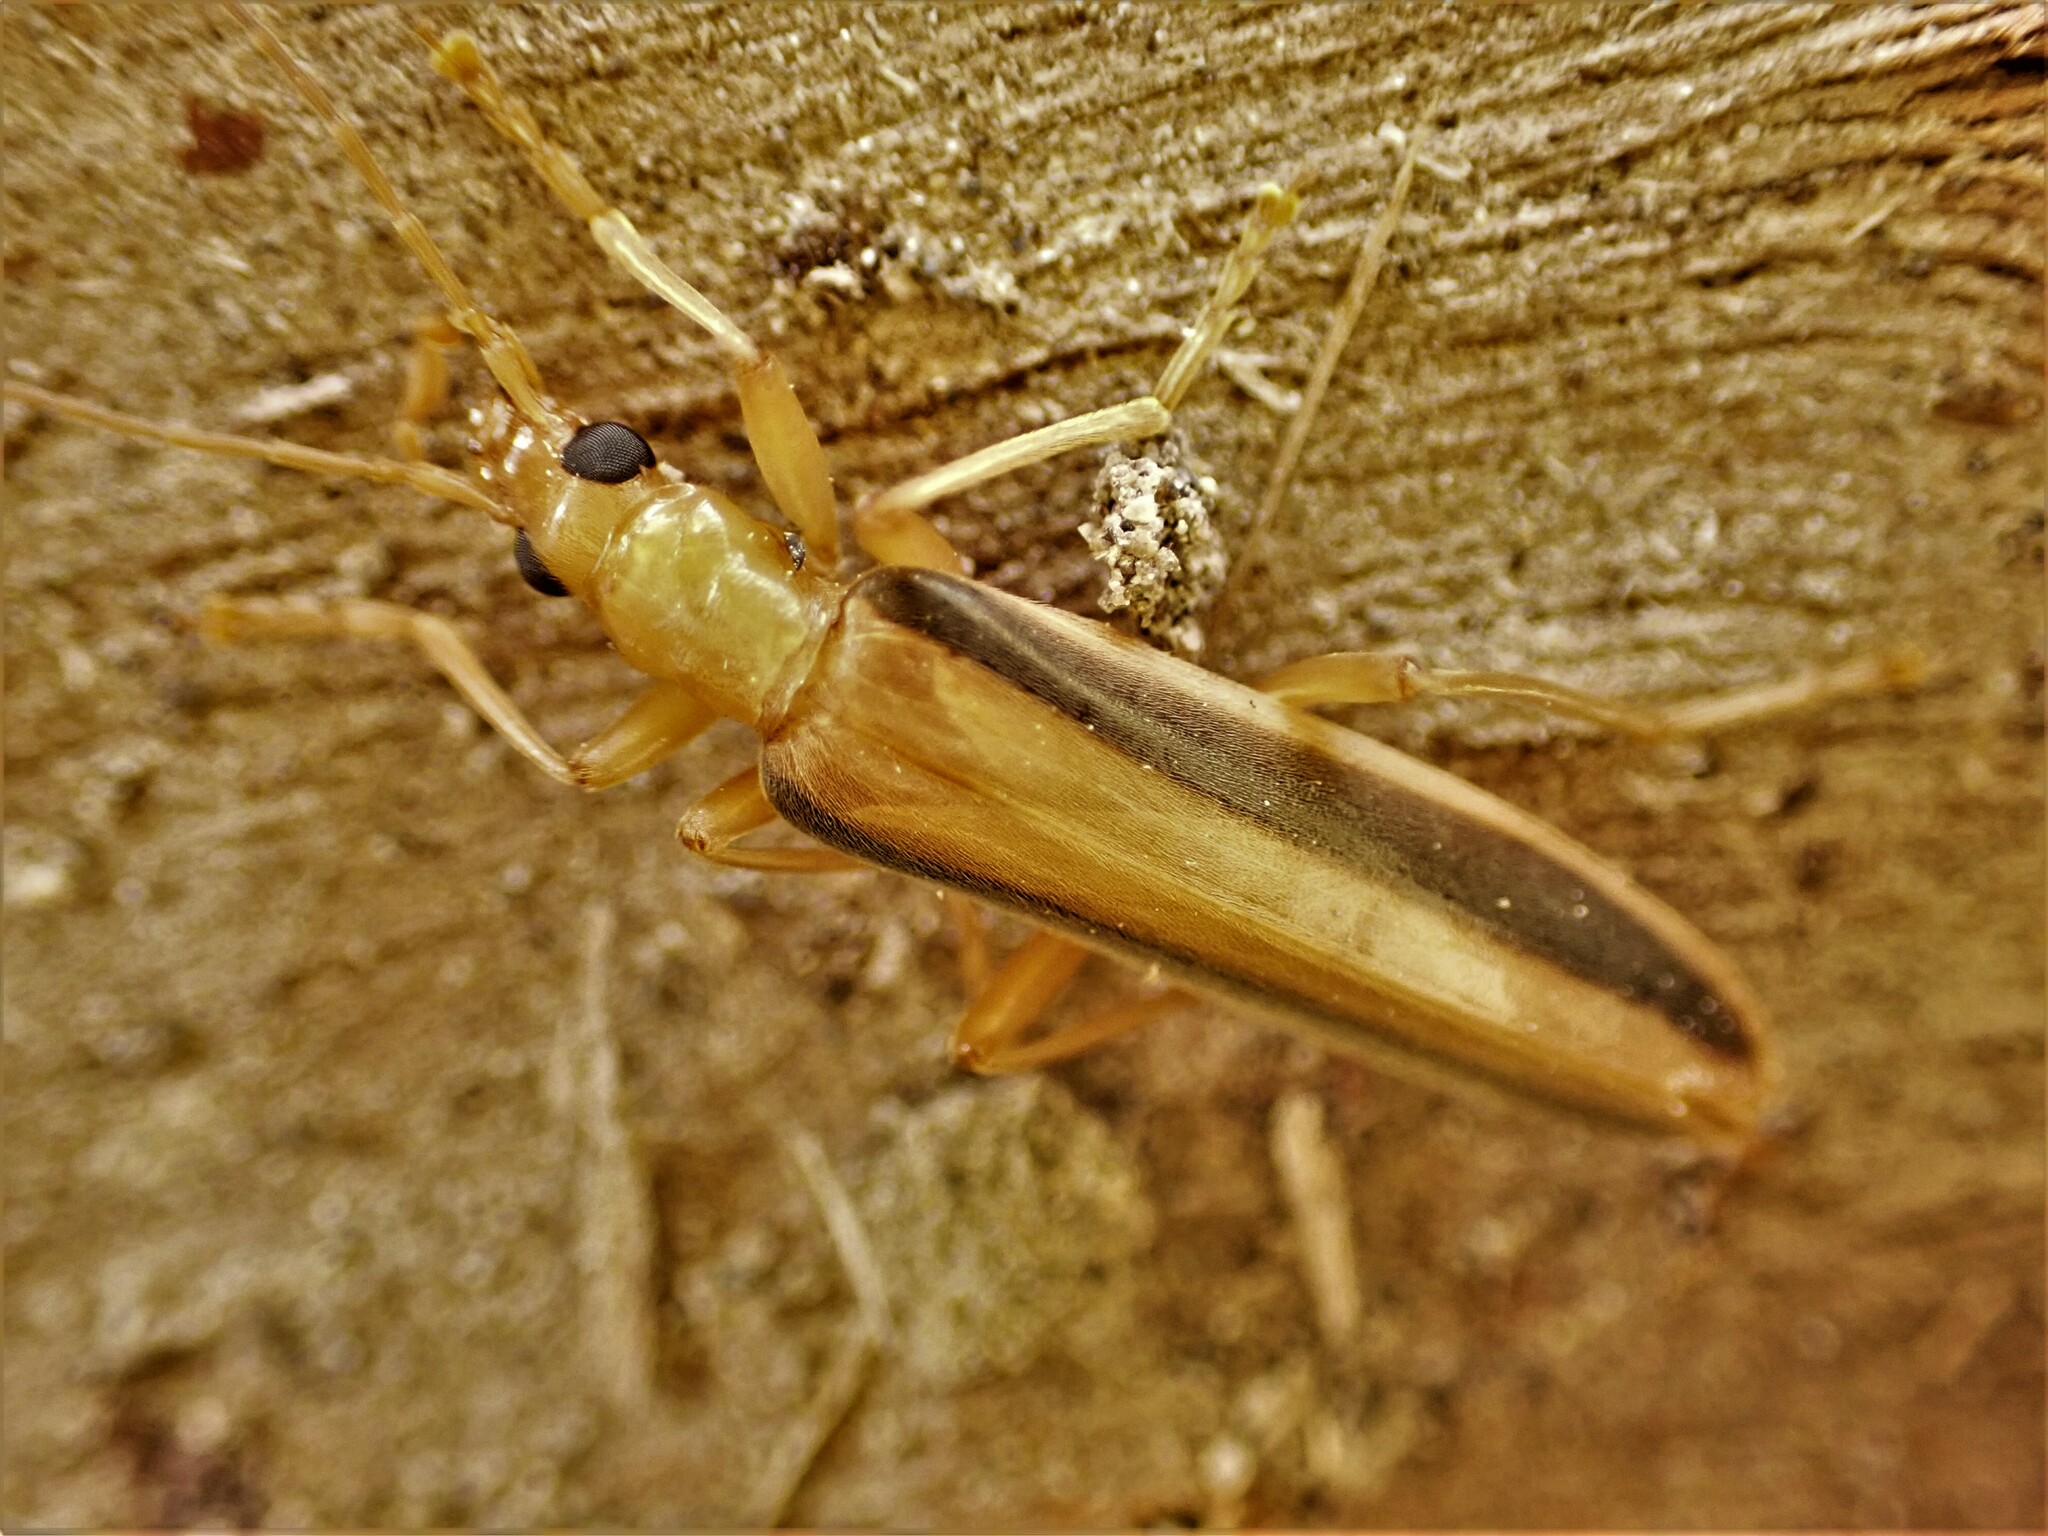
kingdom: Animalia
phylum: Arthropoda
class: Insecta
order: Coleoptera
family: Oedemeridae
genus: Parisopalpus
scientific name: Parisopalpus
